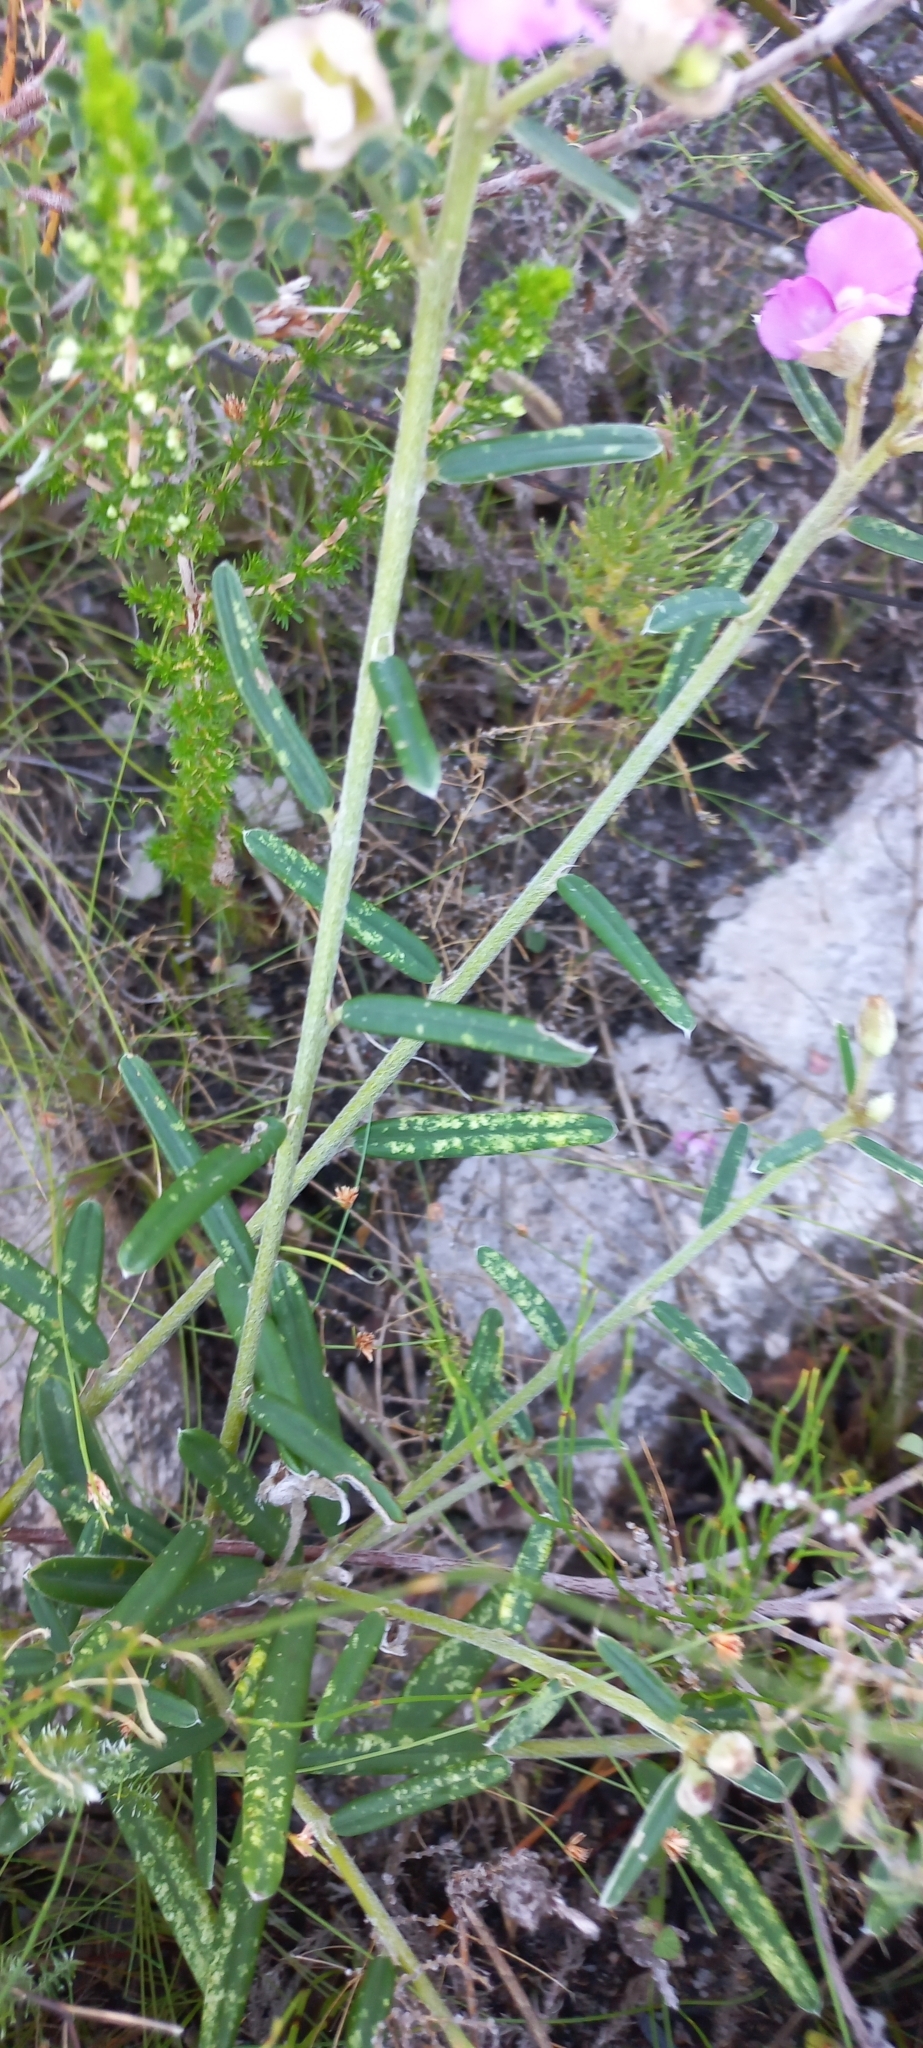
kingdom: Plantae
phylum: Tracheophyta
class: Magnoliopsida
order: Fabales
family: Fabaceae
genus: Podalyria
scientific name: Podalyria oleifolia
